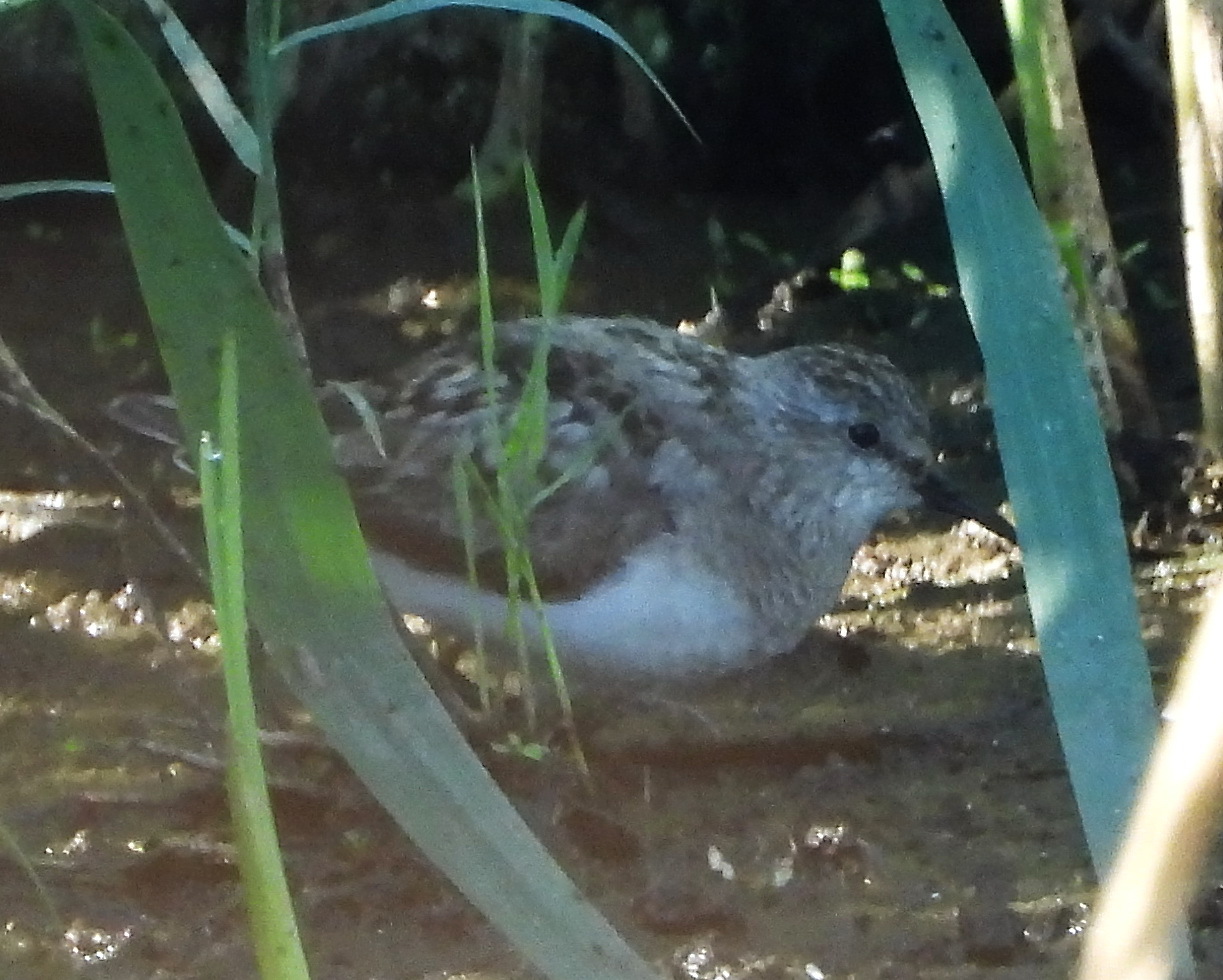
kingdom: Animalia
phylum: Chordata
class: Aves
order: Charadriiformes
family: Scolopacidae
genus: Calidris
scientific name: Calidris temminckii
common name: Temminck's stint
